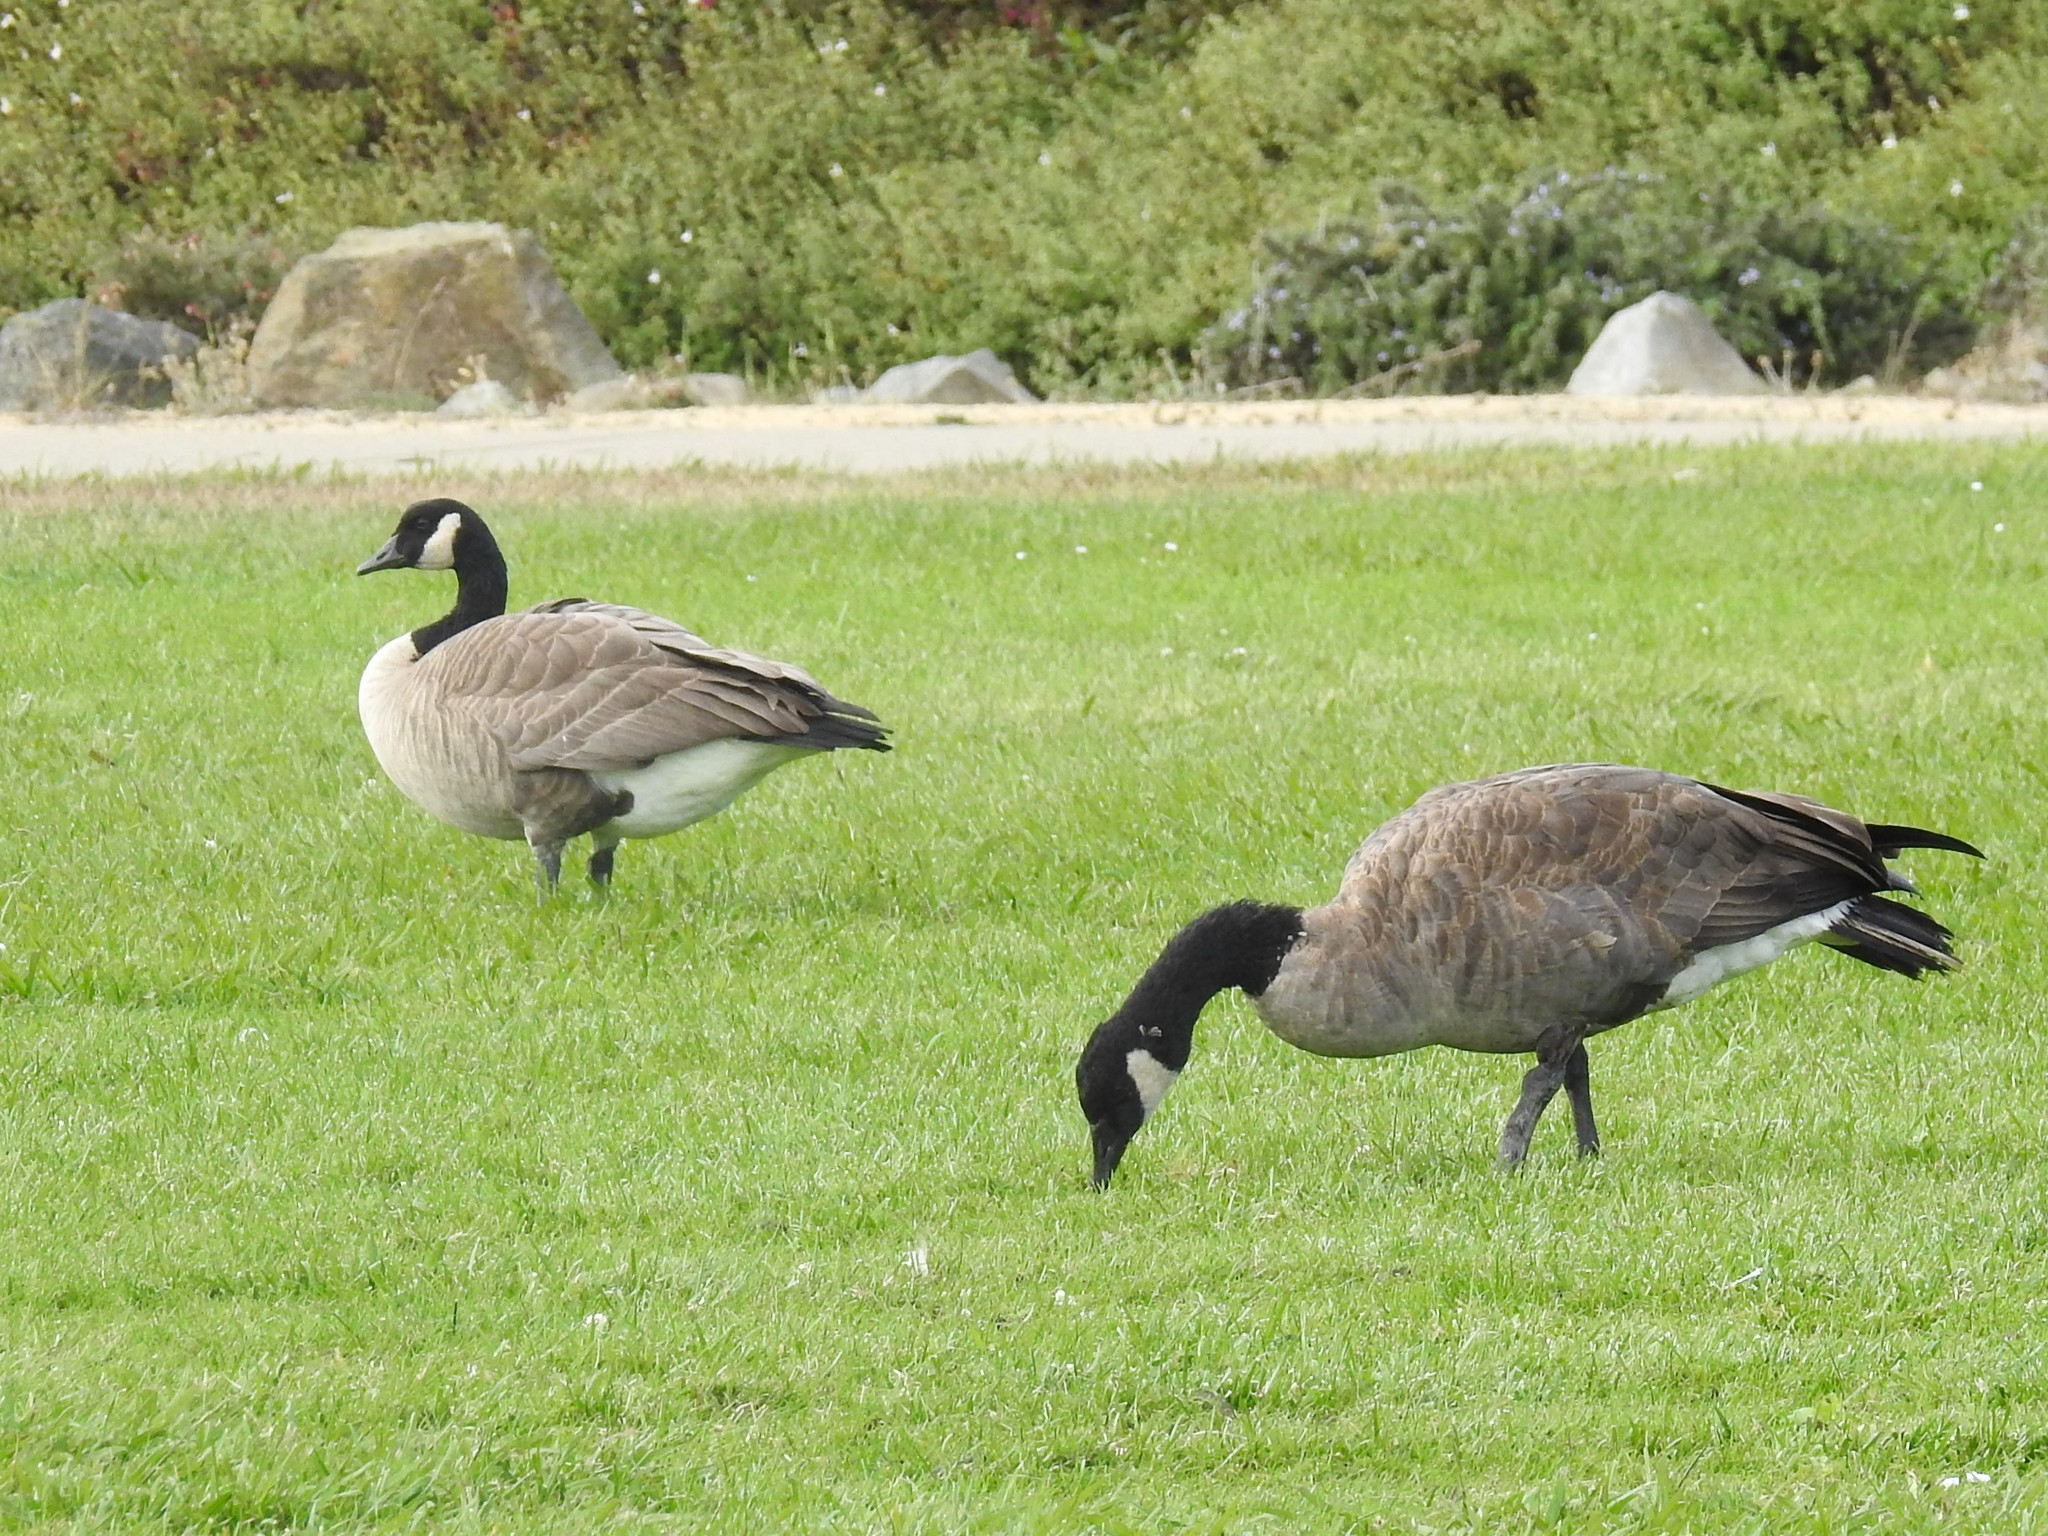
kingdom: Animalia
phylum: Chordata
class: Aves
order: Anseriformes
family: Anatidae
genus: Branta
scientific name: Branta canadensis
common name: Canada goose
